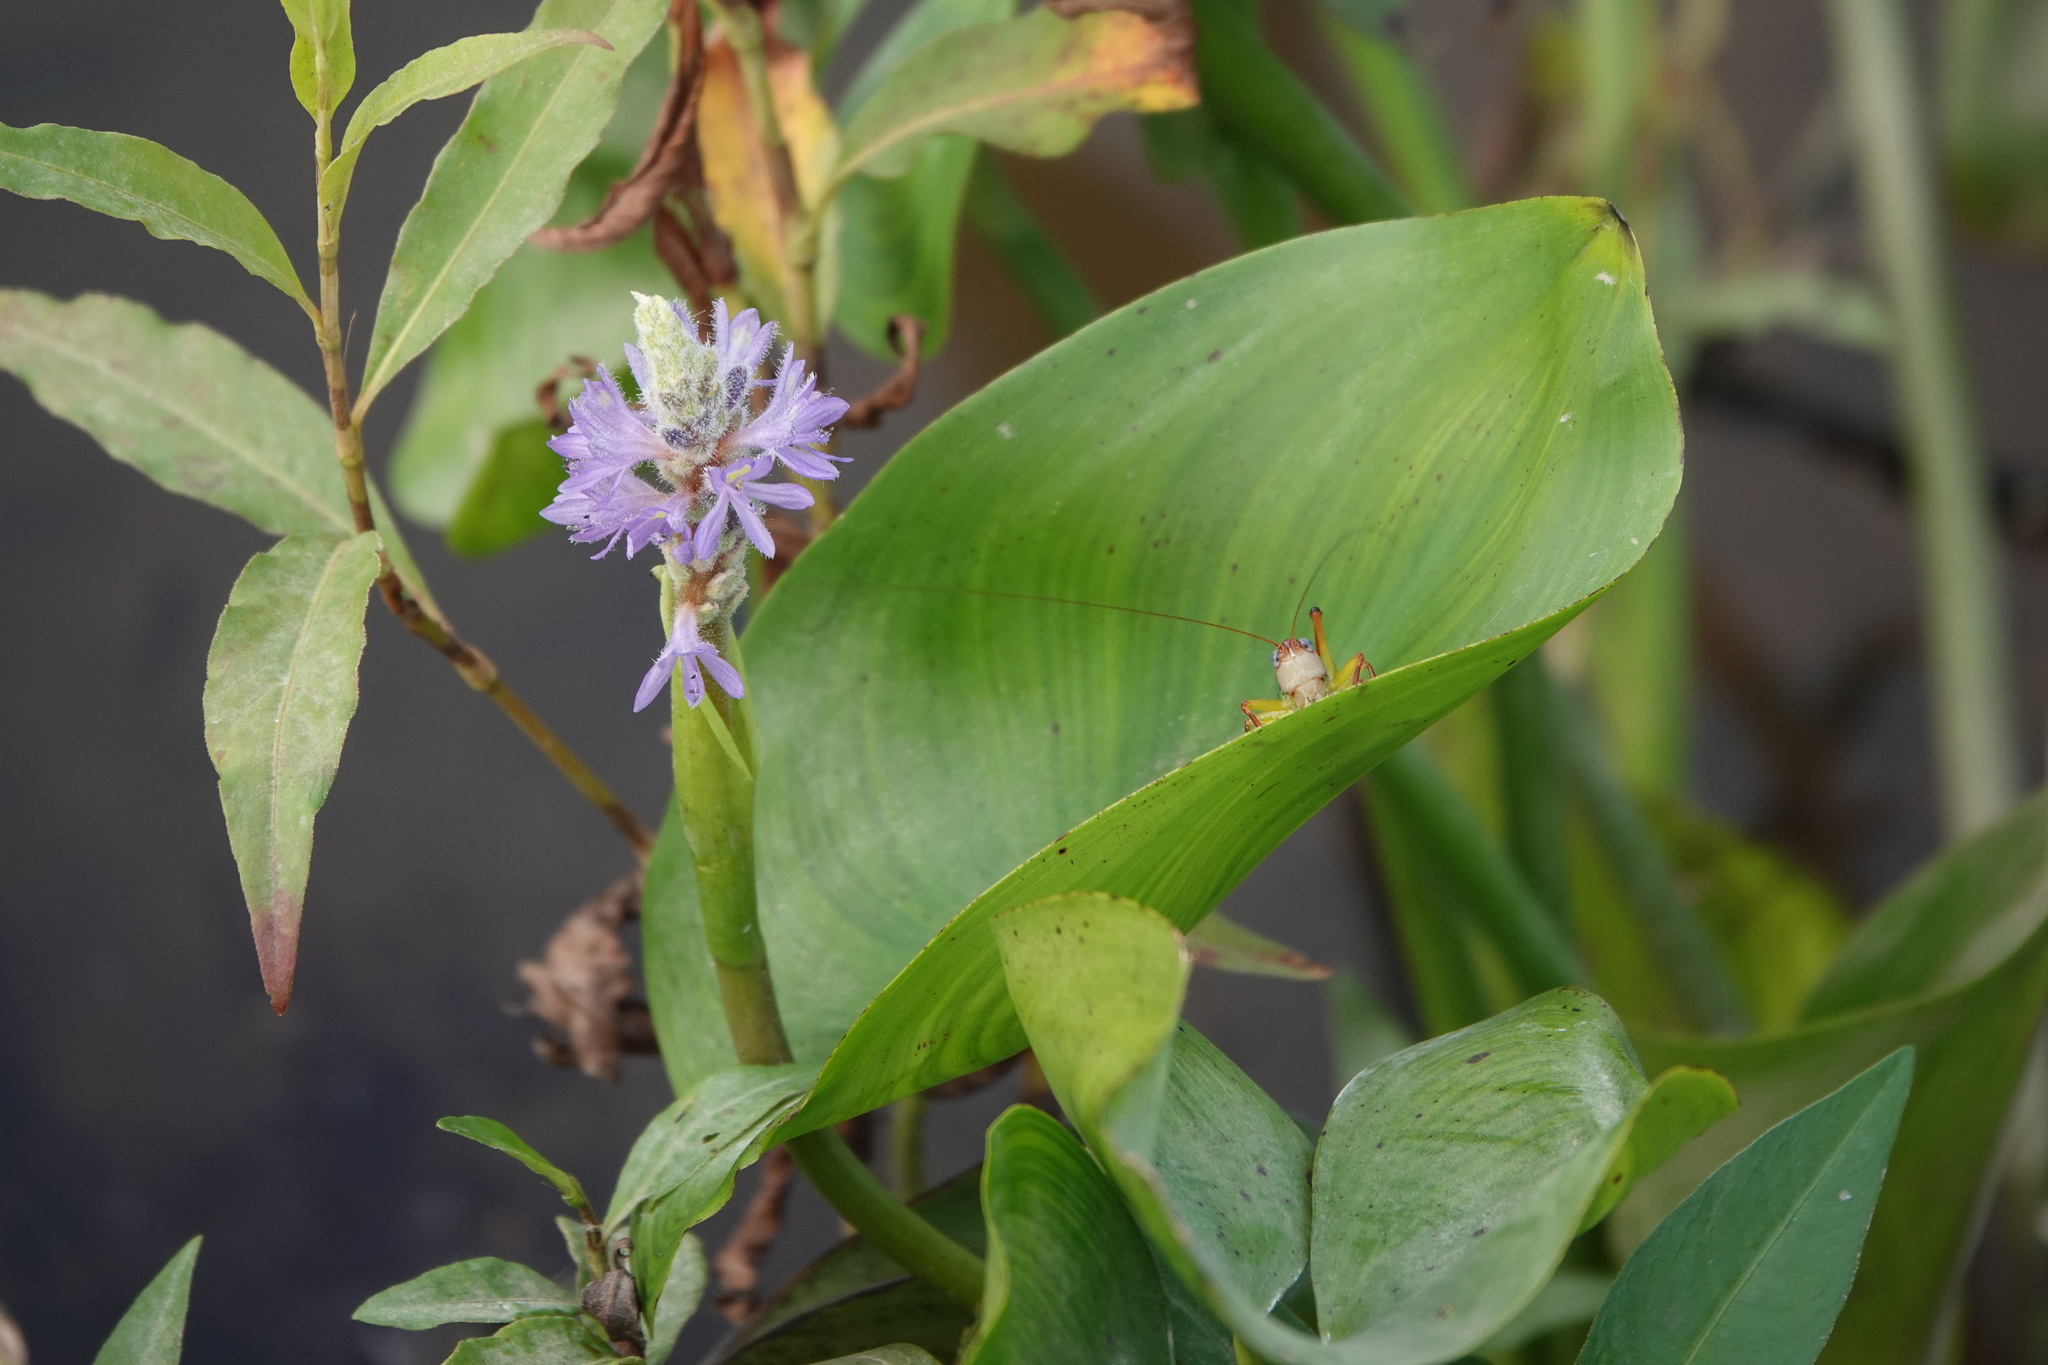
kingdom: Plantae
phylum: Tracheophyta
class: Liliopsida
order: Commelinales
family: Pontederiaceae
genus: Pontederia
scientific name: Pontederia cordata
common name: Pickerelweed
